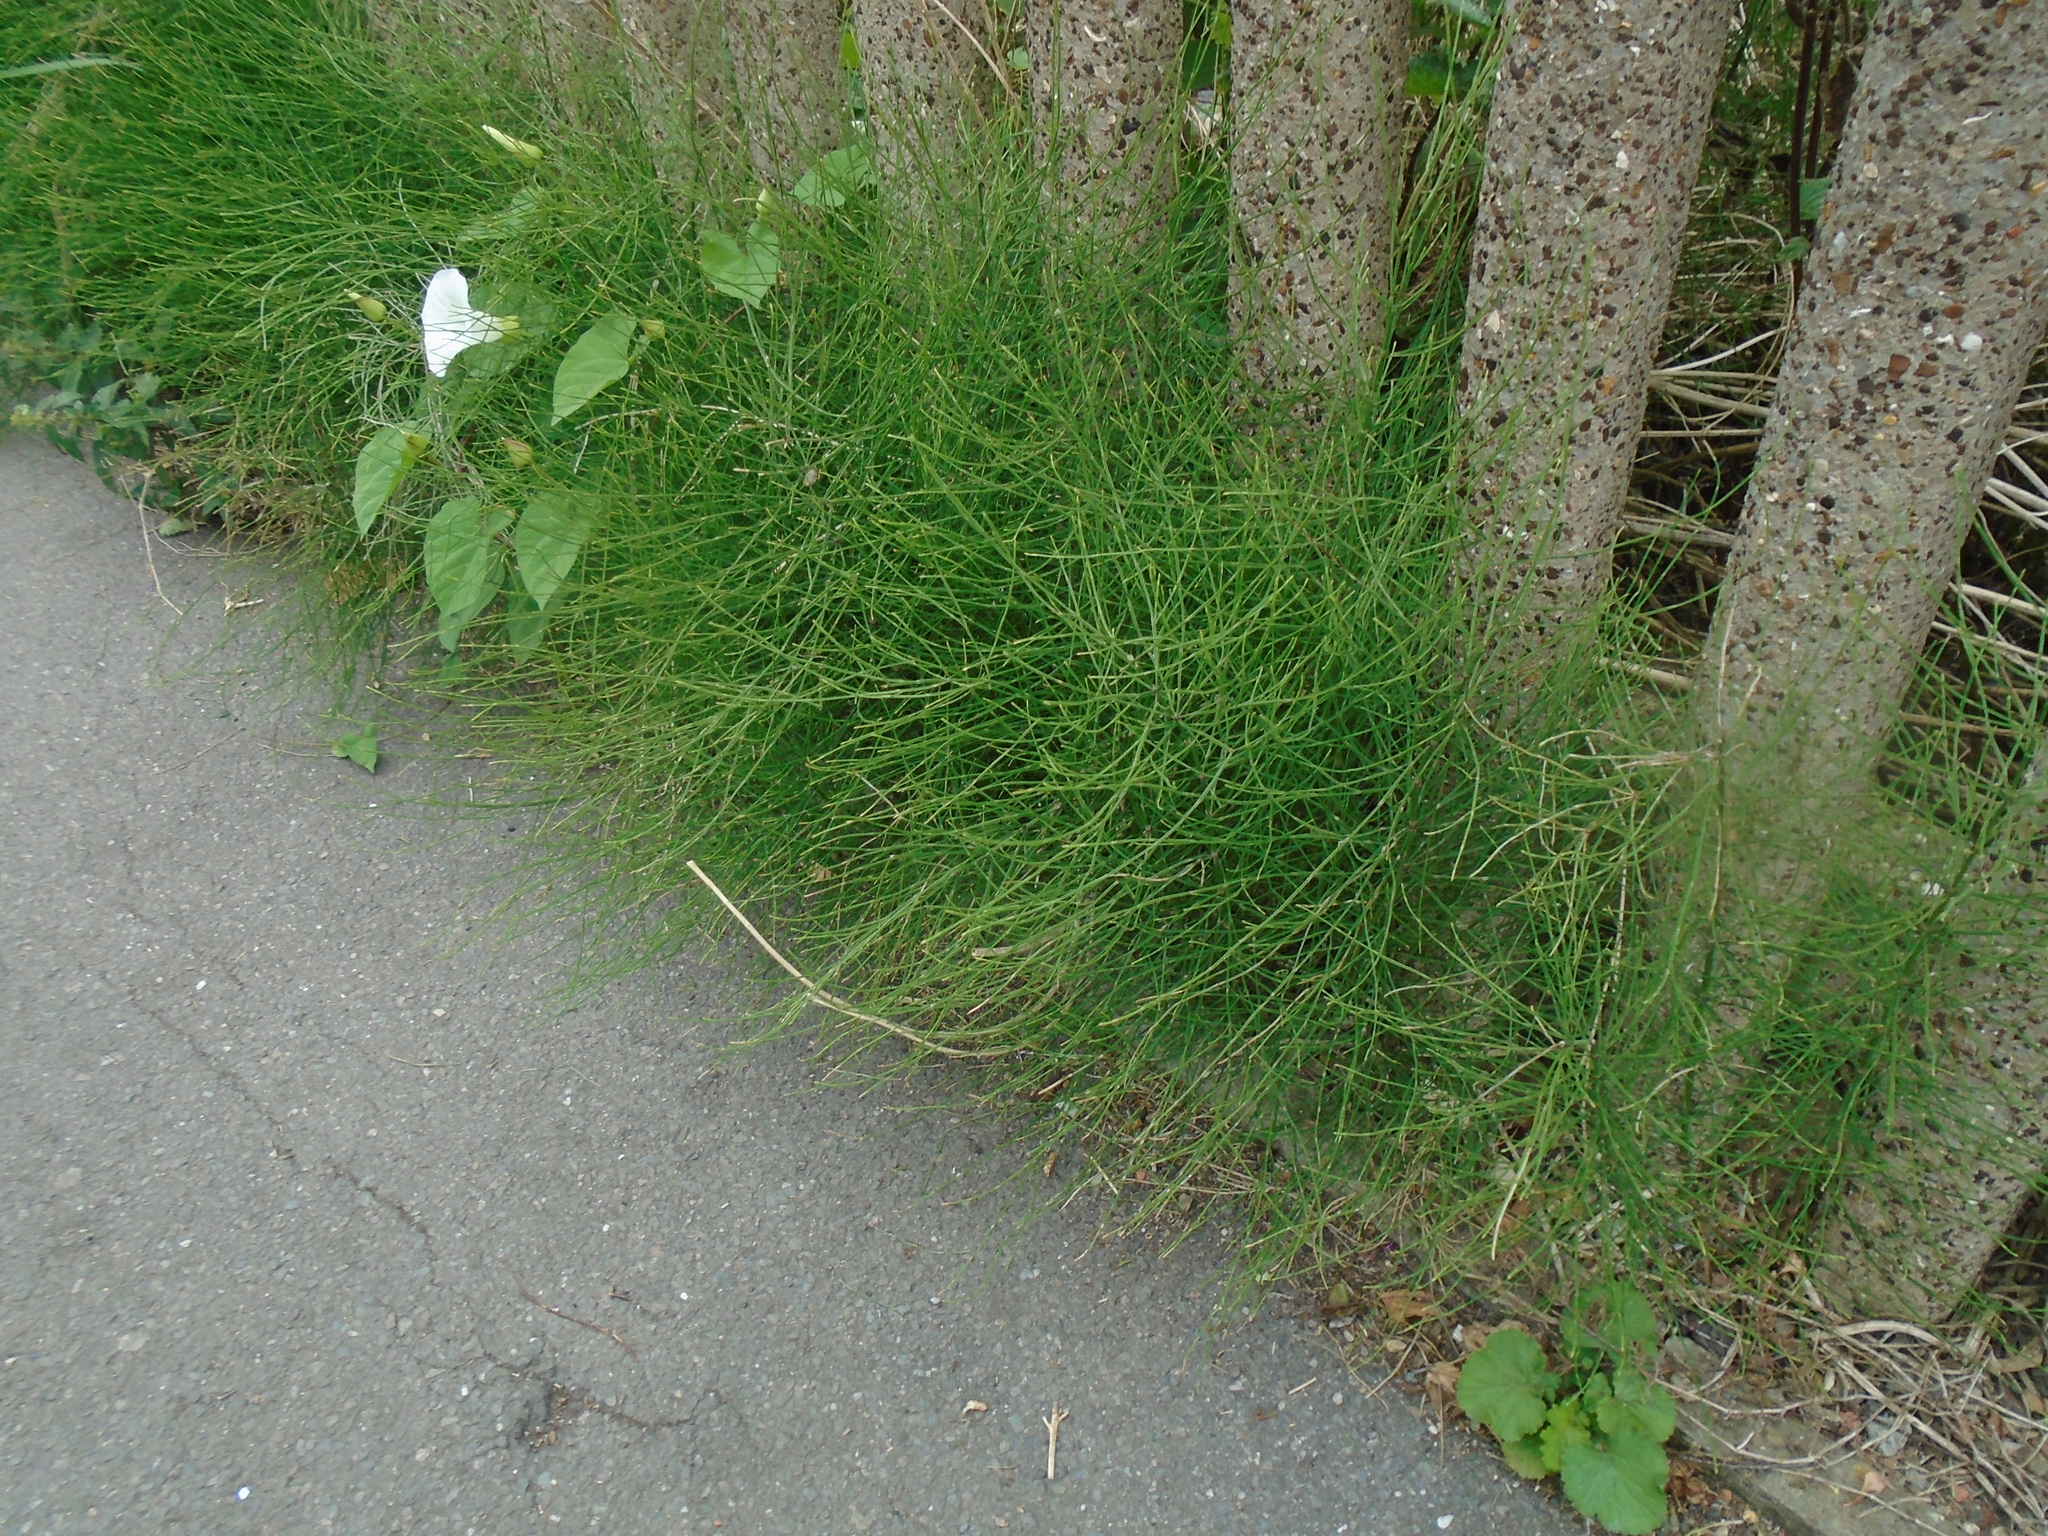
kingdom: Plantae
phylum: Tracheophyta
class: Polypodiopsida
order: Equisetales
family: Equisetaceae
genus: Equisetum
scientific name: Equisetum arvense
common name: Field horsetail
